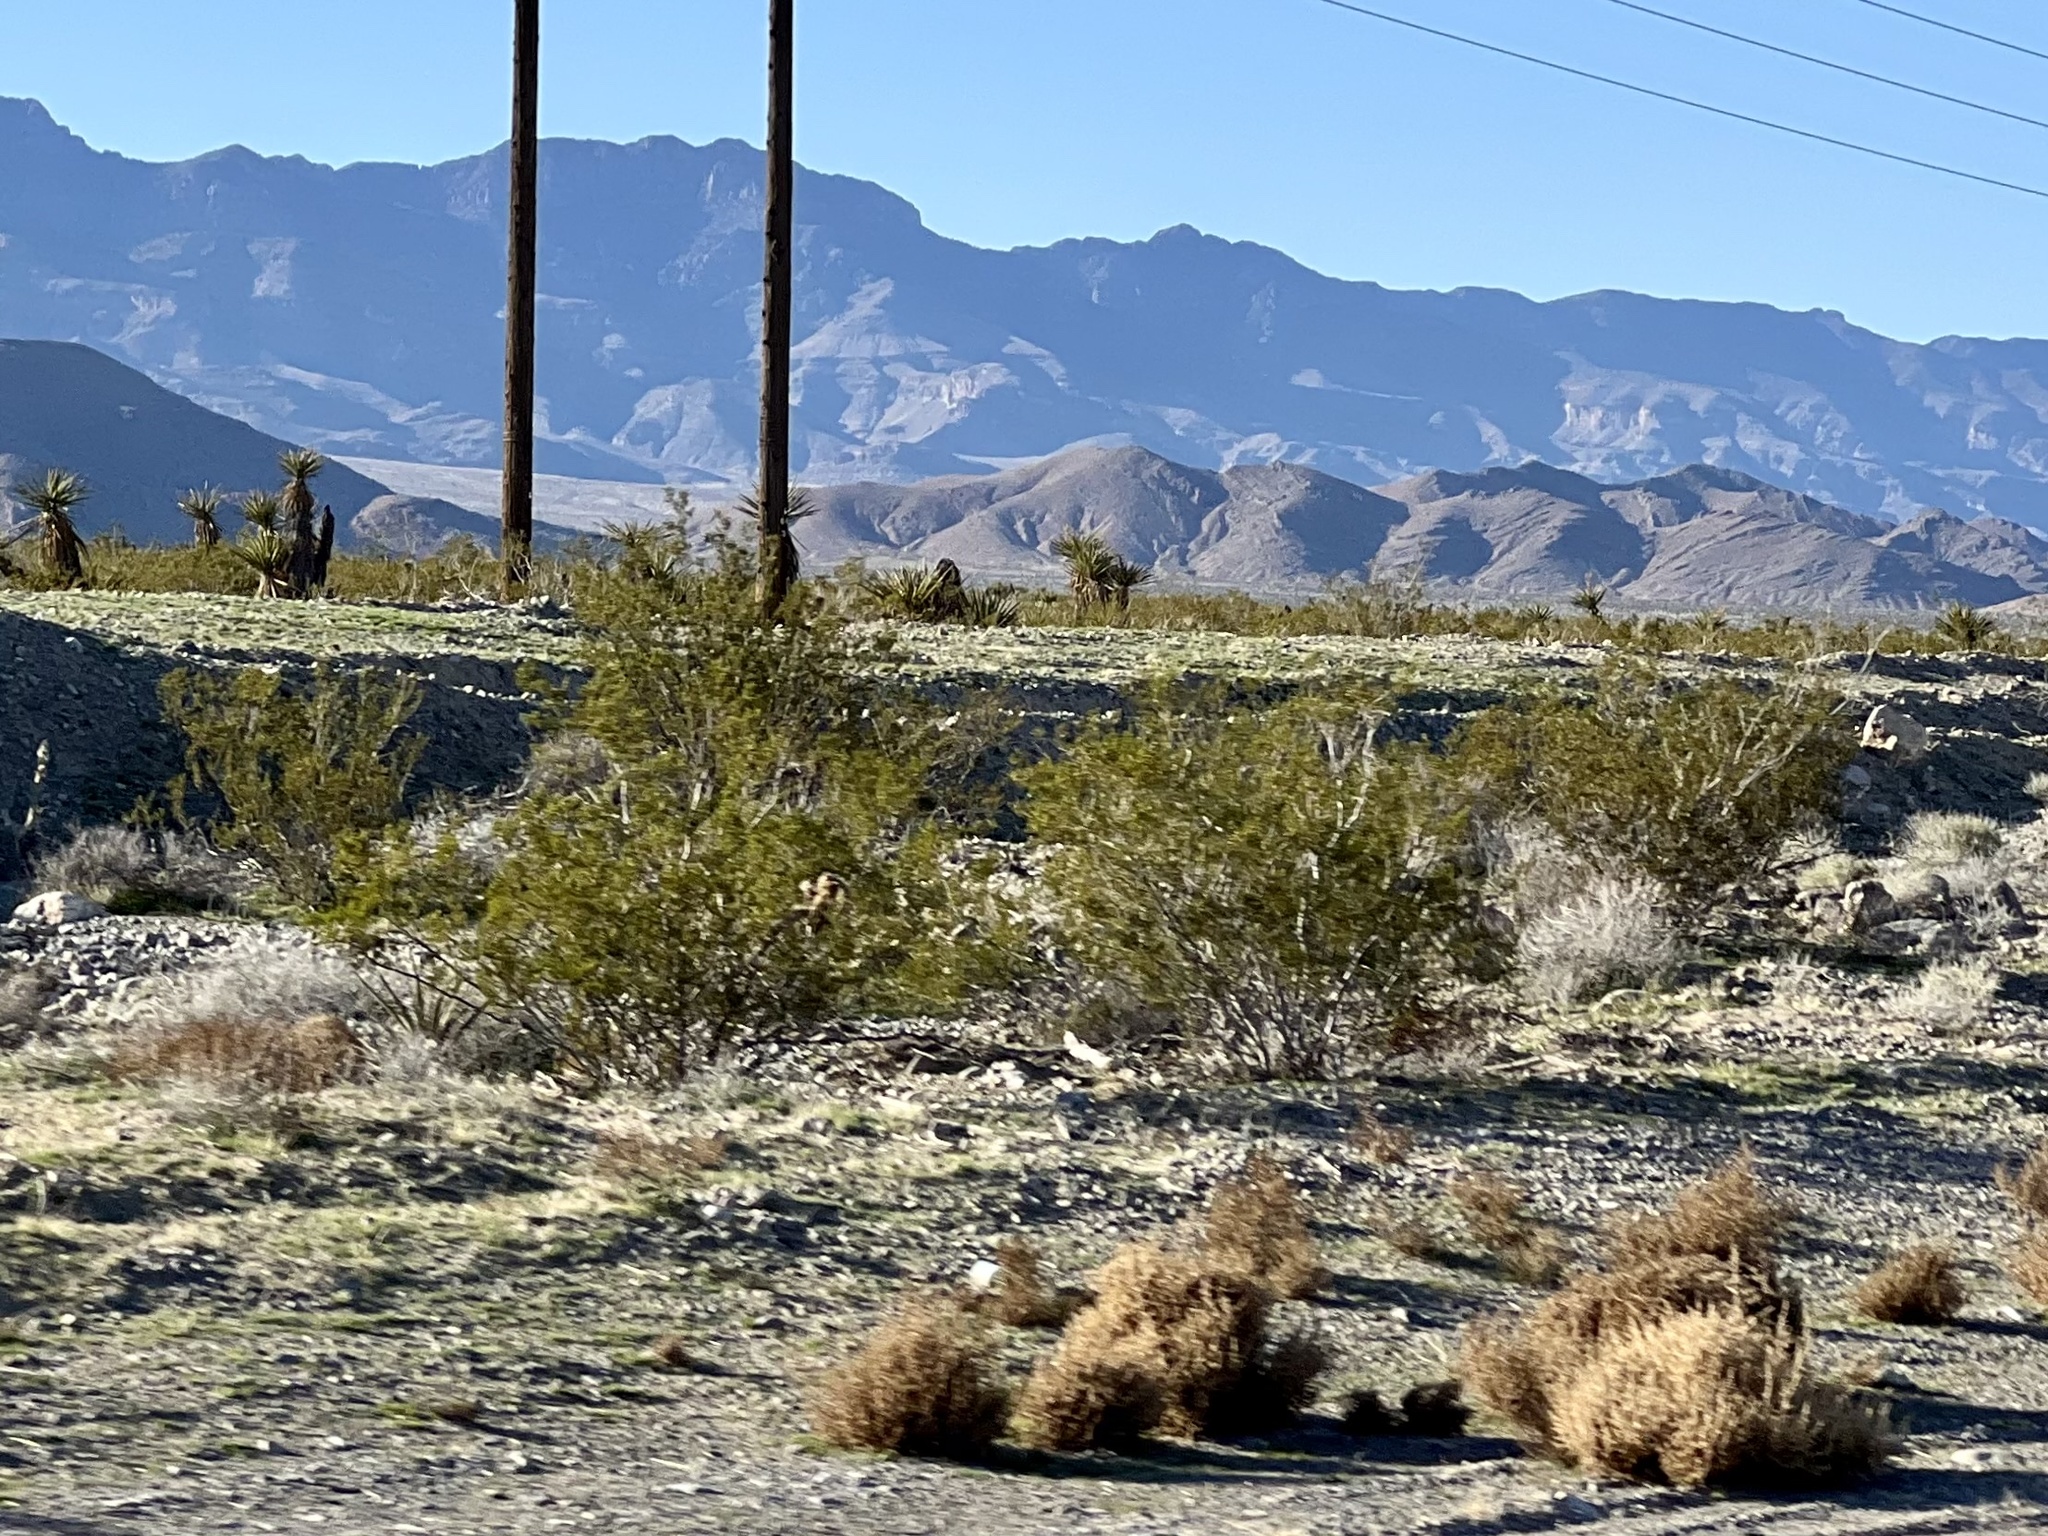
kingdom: Plantae
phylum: Tracheophyta
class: Magnoliopsida
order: Zygophyllales
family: Zygophyllaceae
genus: Larrea
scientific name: Larrea tridentata
